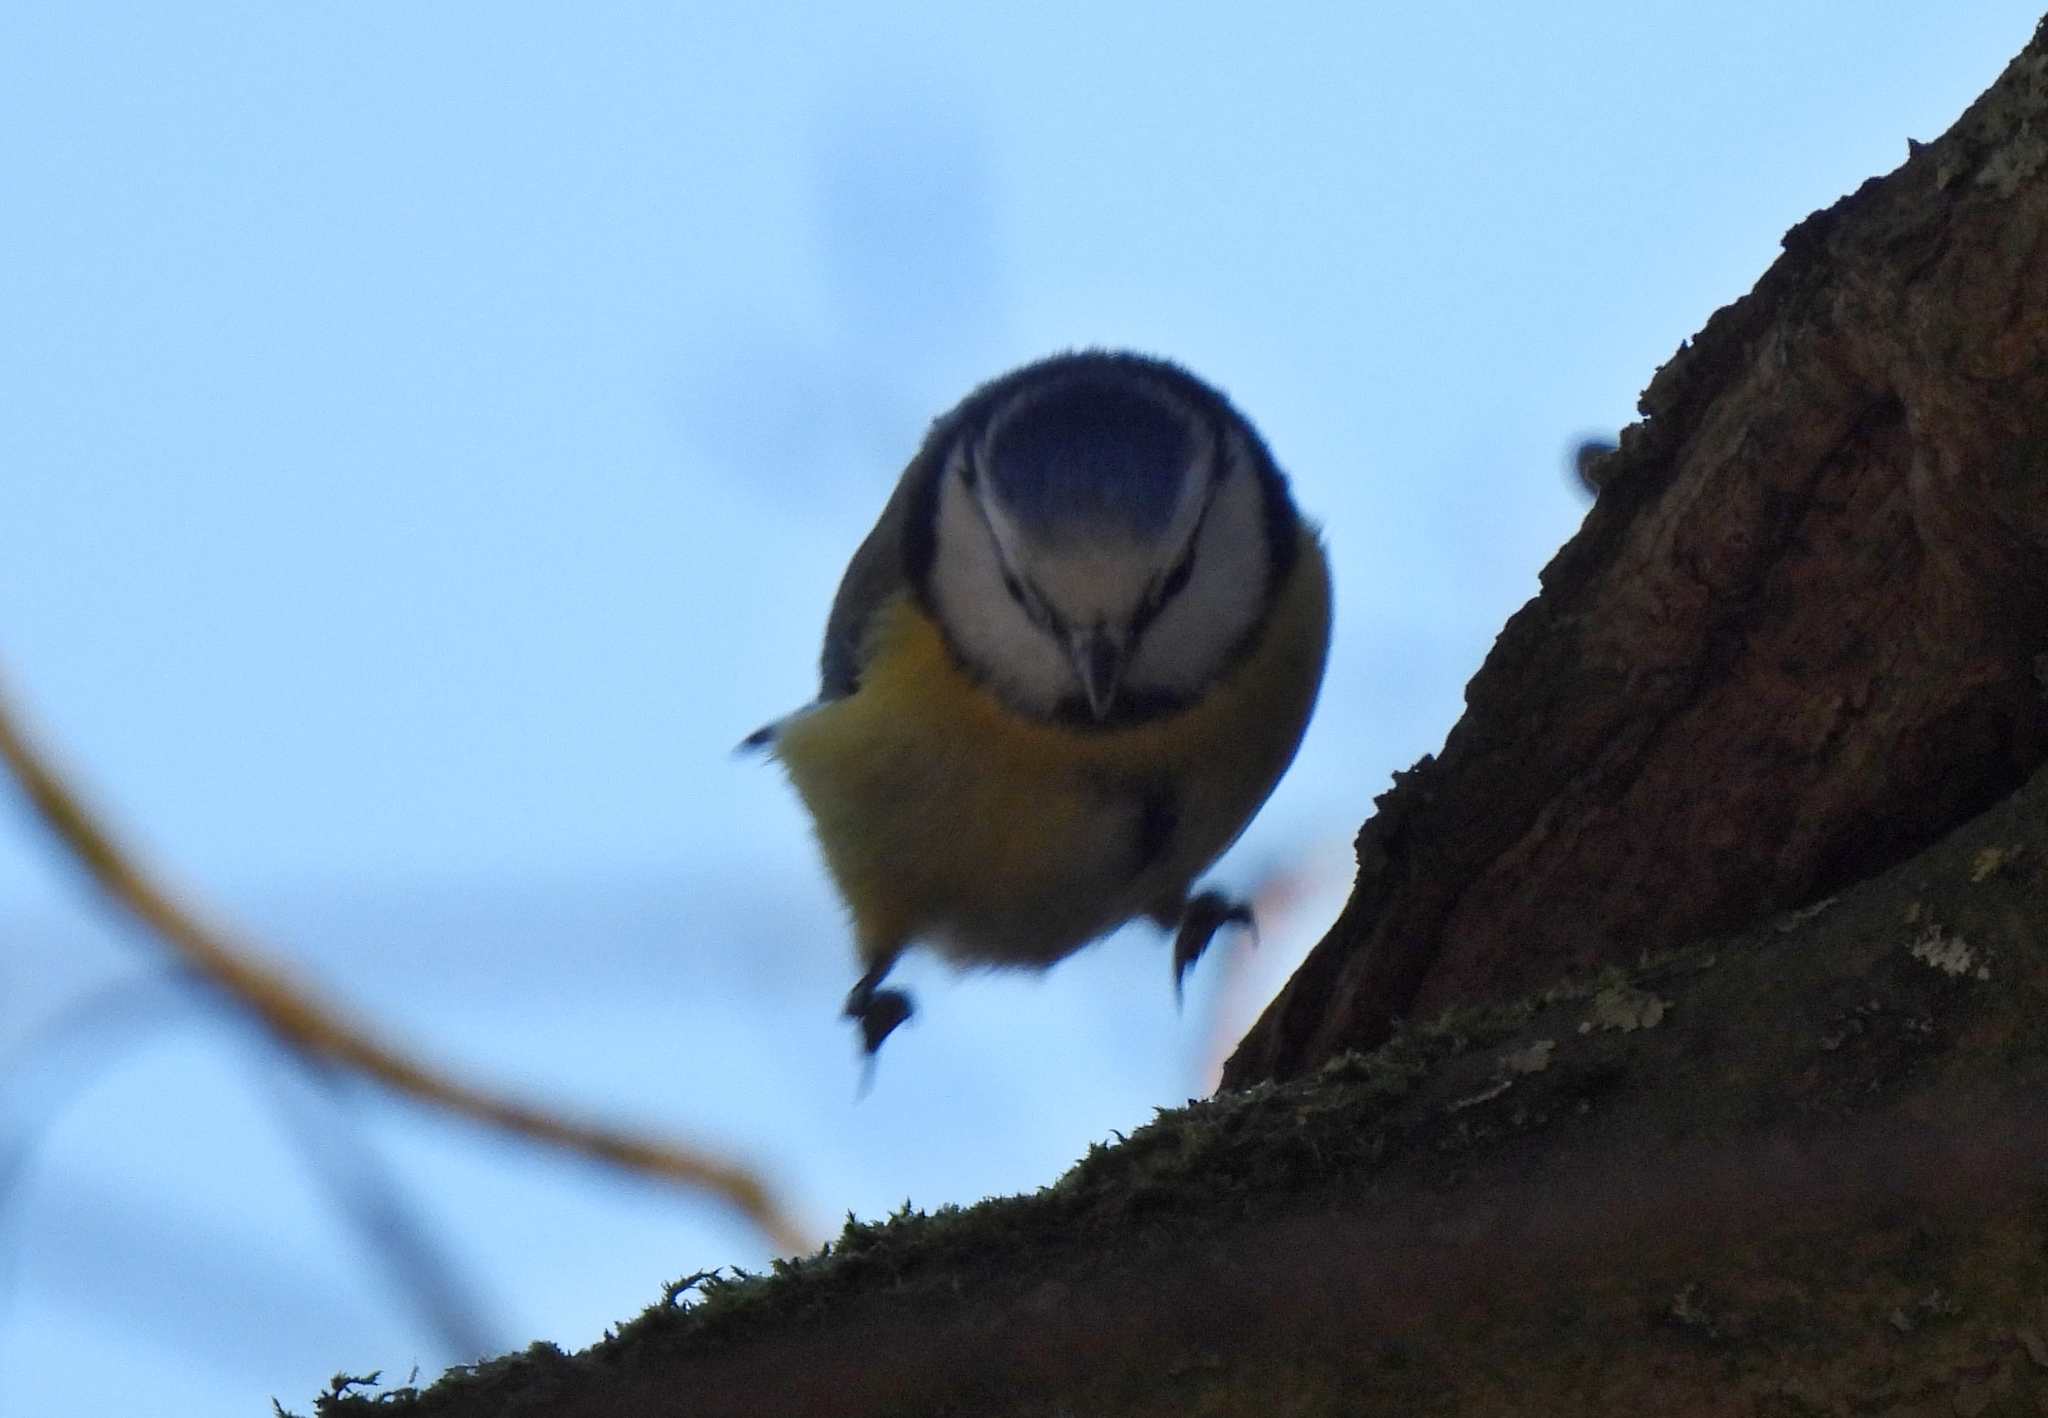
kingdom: Animalia
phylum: Chordata
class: Aves
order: Passeriformes
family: Paridae
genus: Cyanistes
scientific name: Cyanistes caeruleus
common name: Eurasian blue tit
